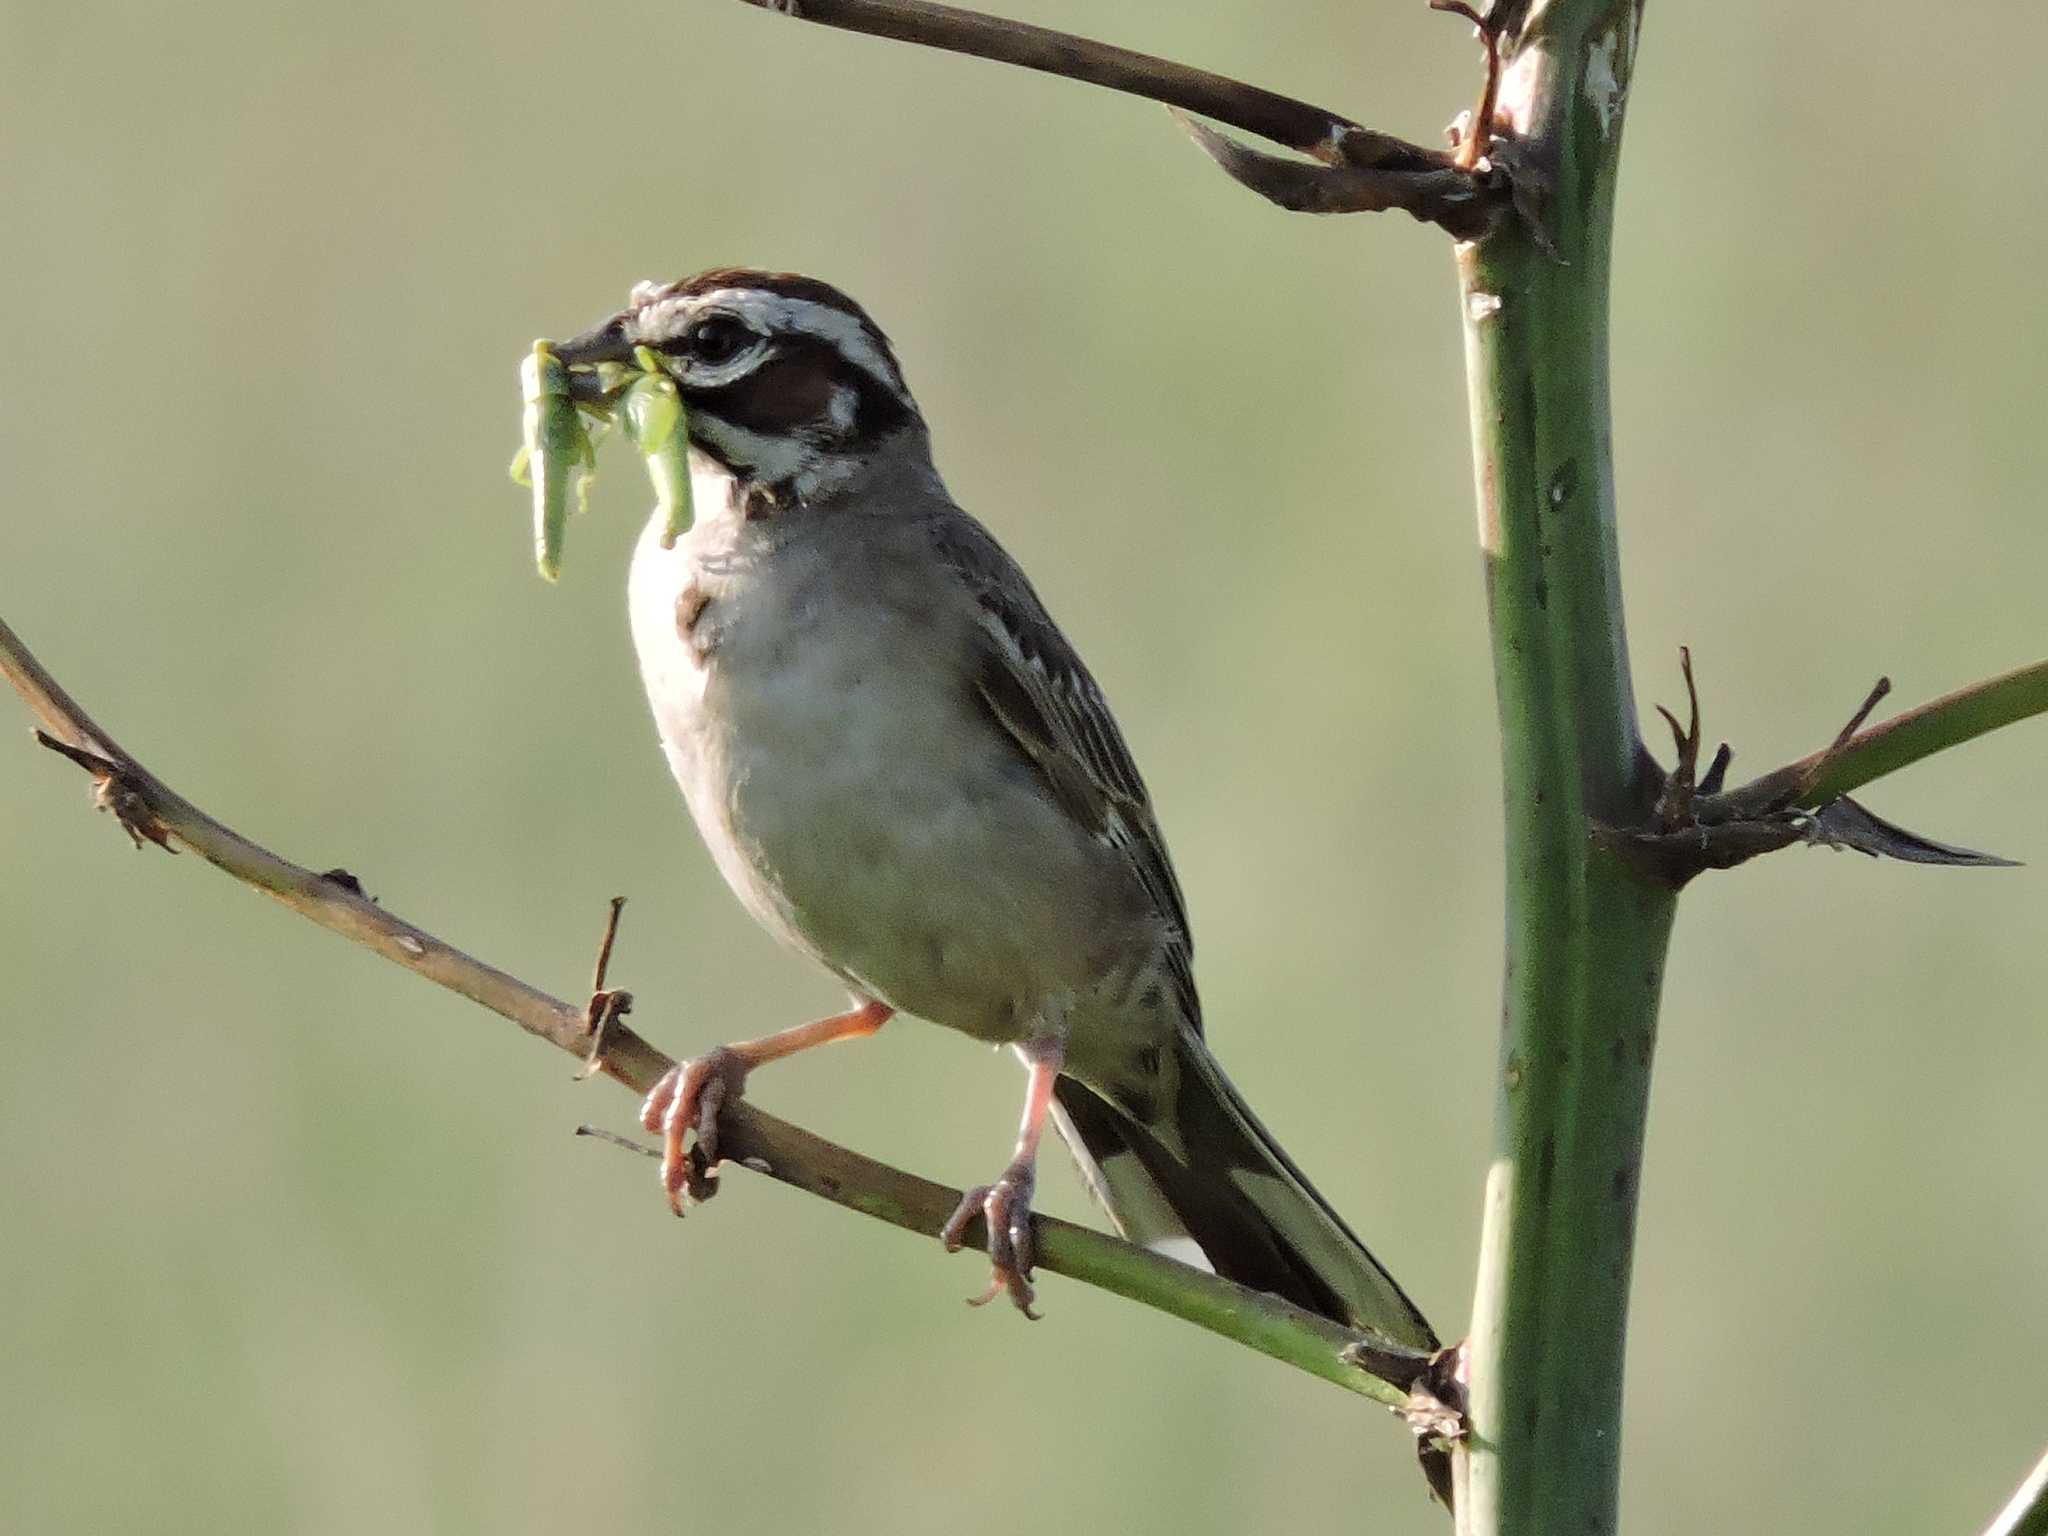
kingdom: Animalia
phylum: Chordata
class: Aves
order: Passeriformes
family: Passerellidae
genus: Chondestes
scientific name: Chondestes grammacus
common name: Lark sparrow
